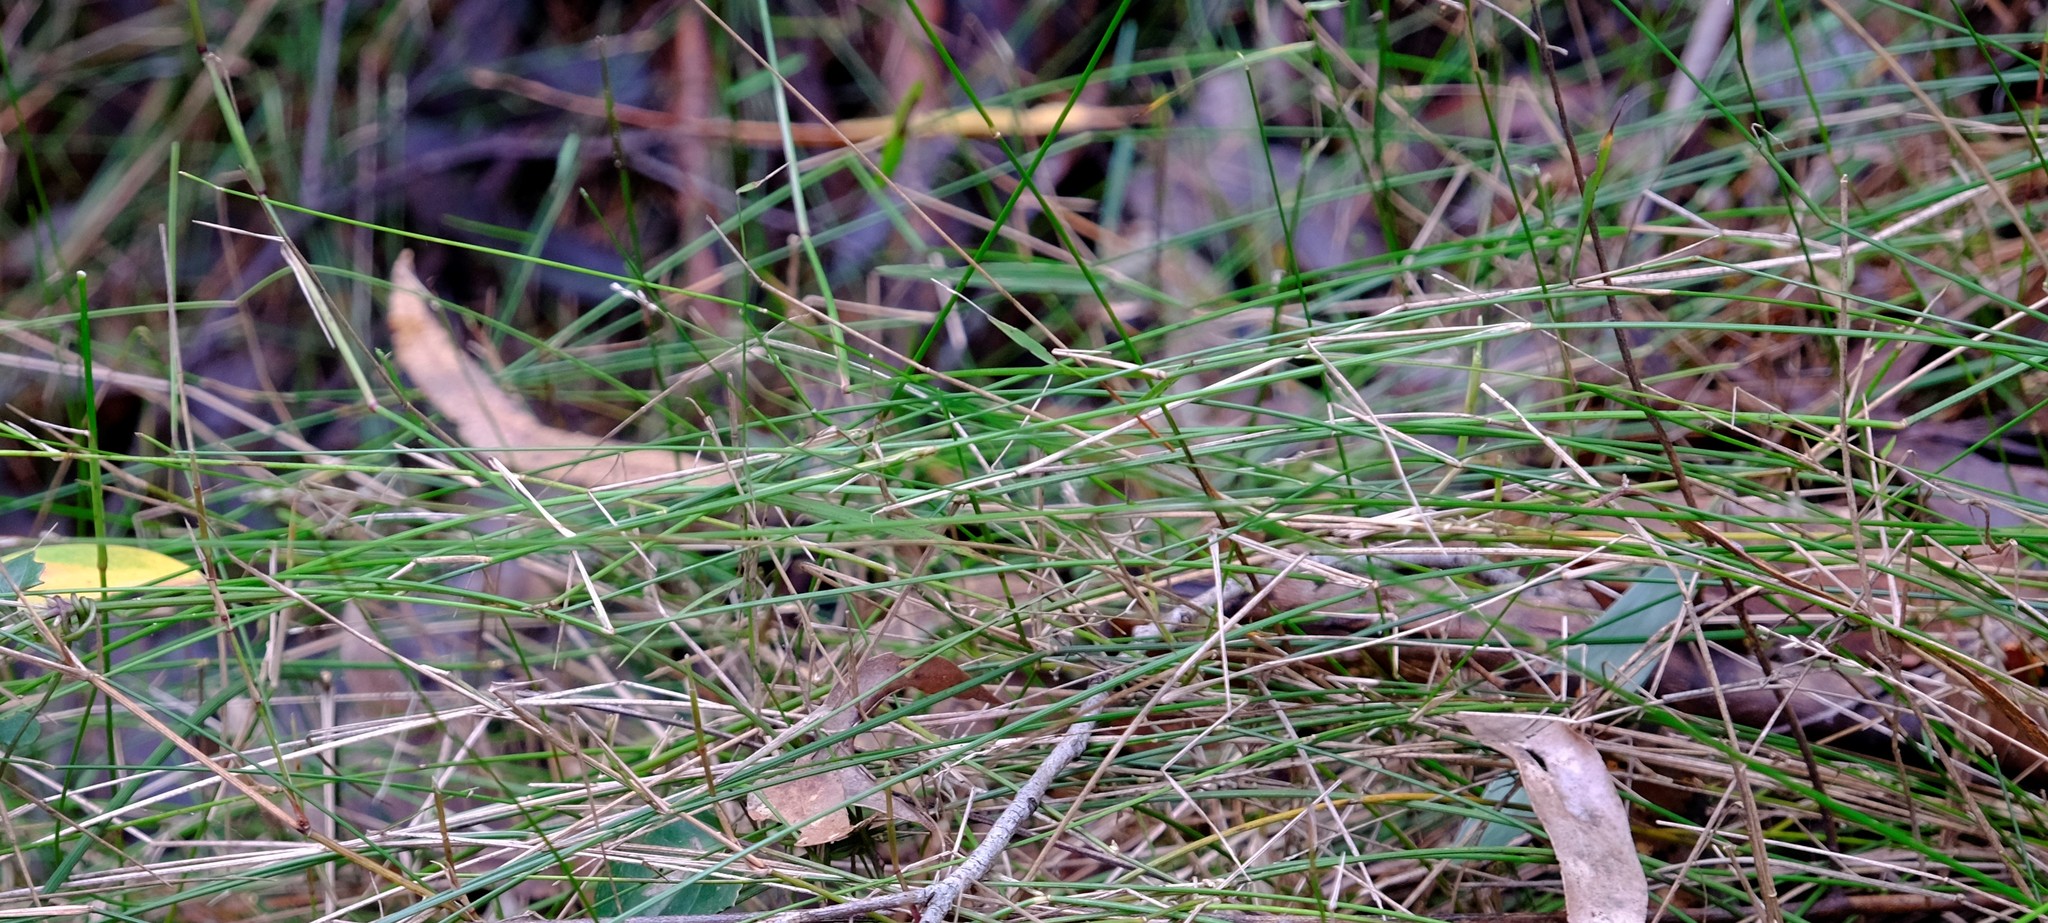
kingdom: Plantae
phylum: Tracheophyta
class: Liliopsida
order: Poales
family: Poaceae
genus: Tetrarrhena
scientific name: Tetrarrhena juncea
